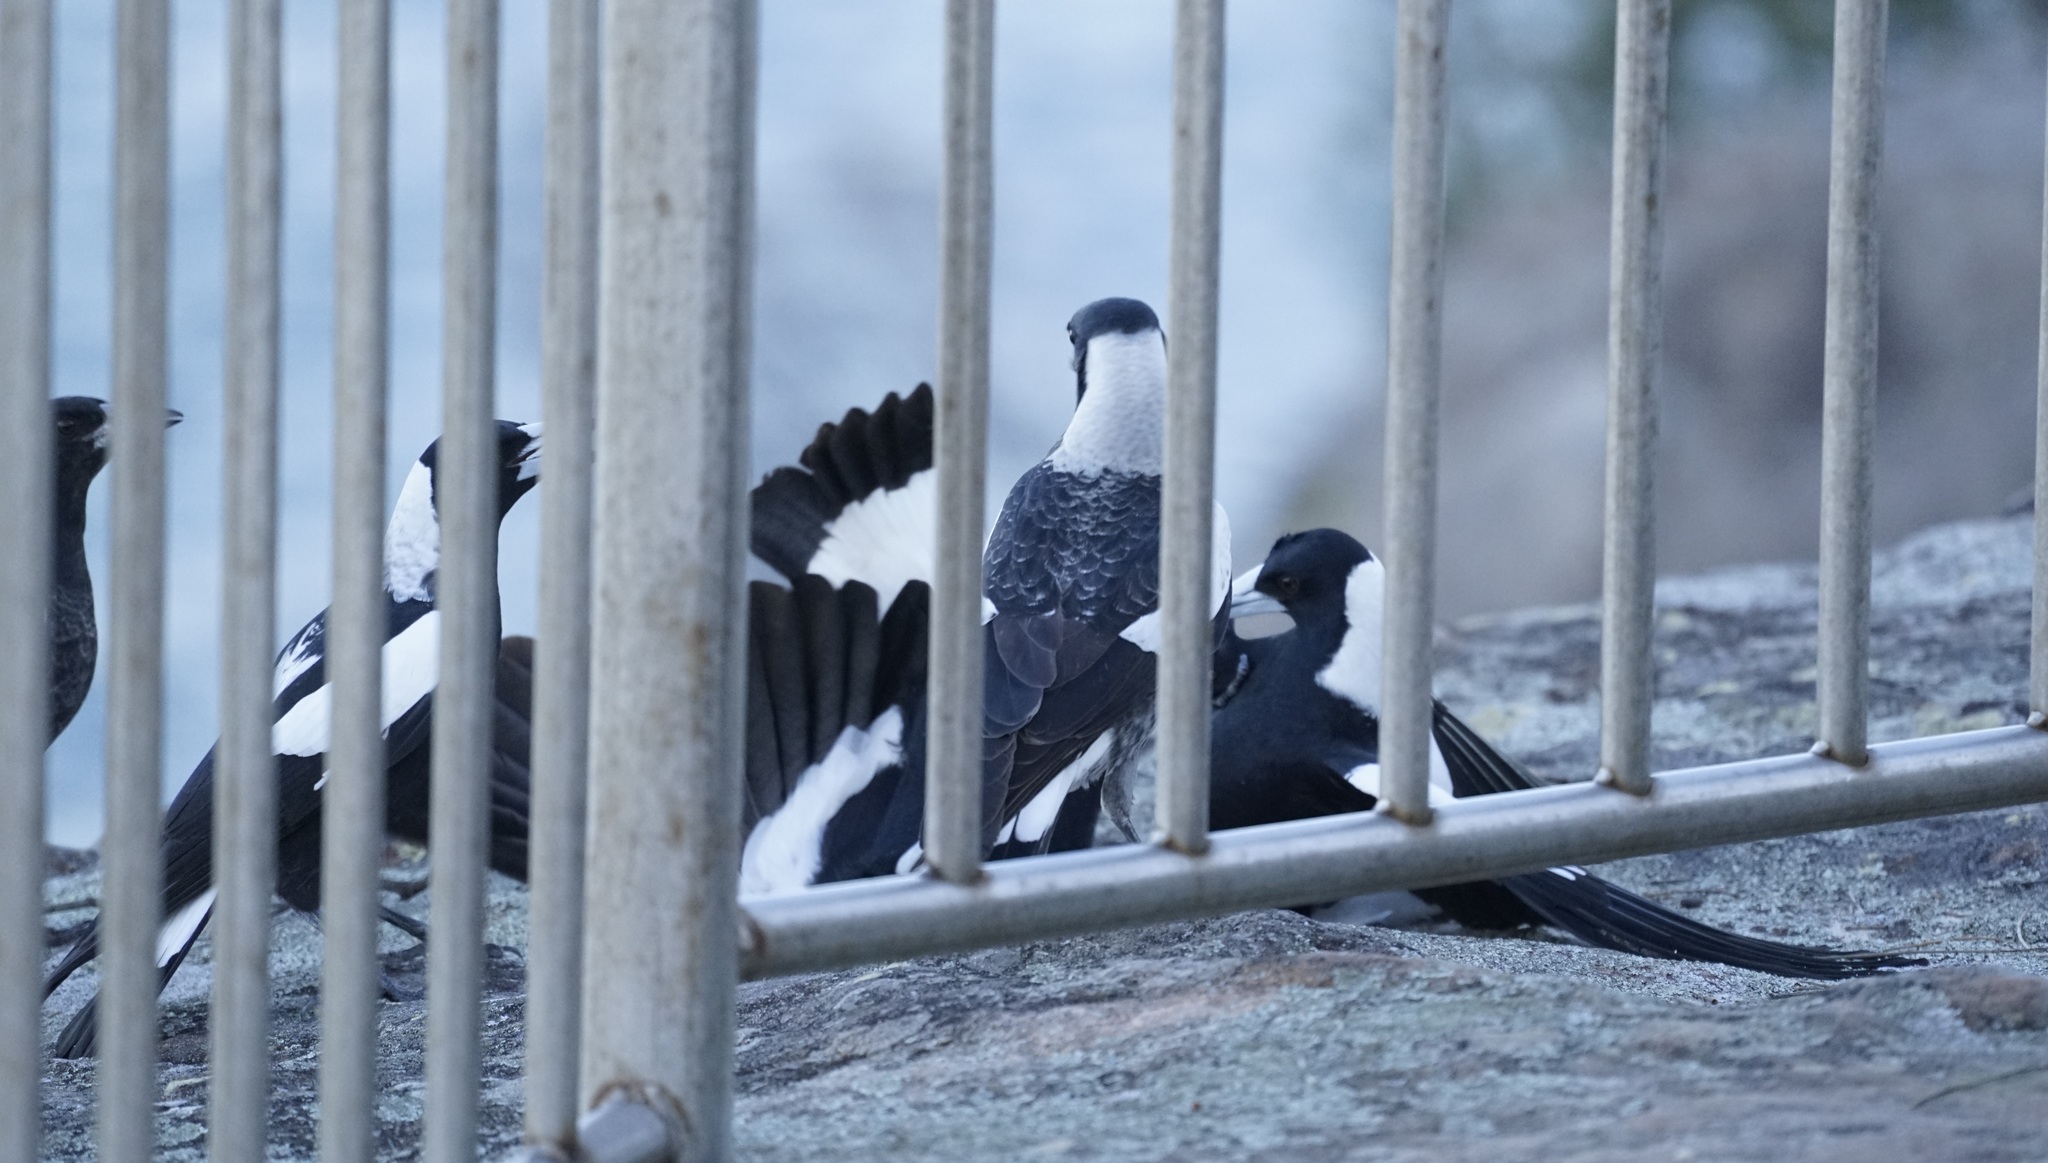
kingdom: Animalia
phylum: Chordata
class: Aves
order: Passeriformes
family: Cracticidae
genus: Gymnorhina
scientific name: Gymnorhina tibicen
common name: Australian magpie
